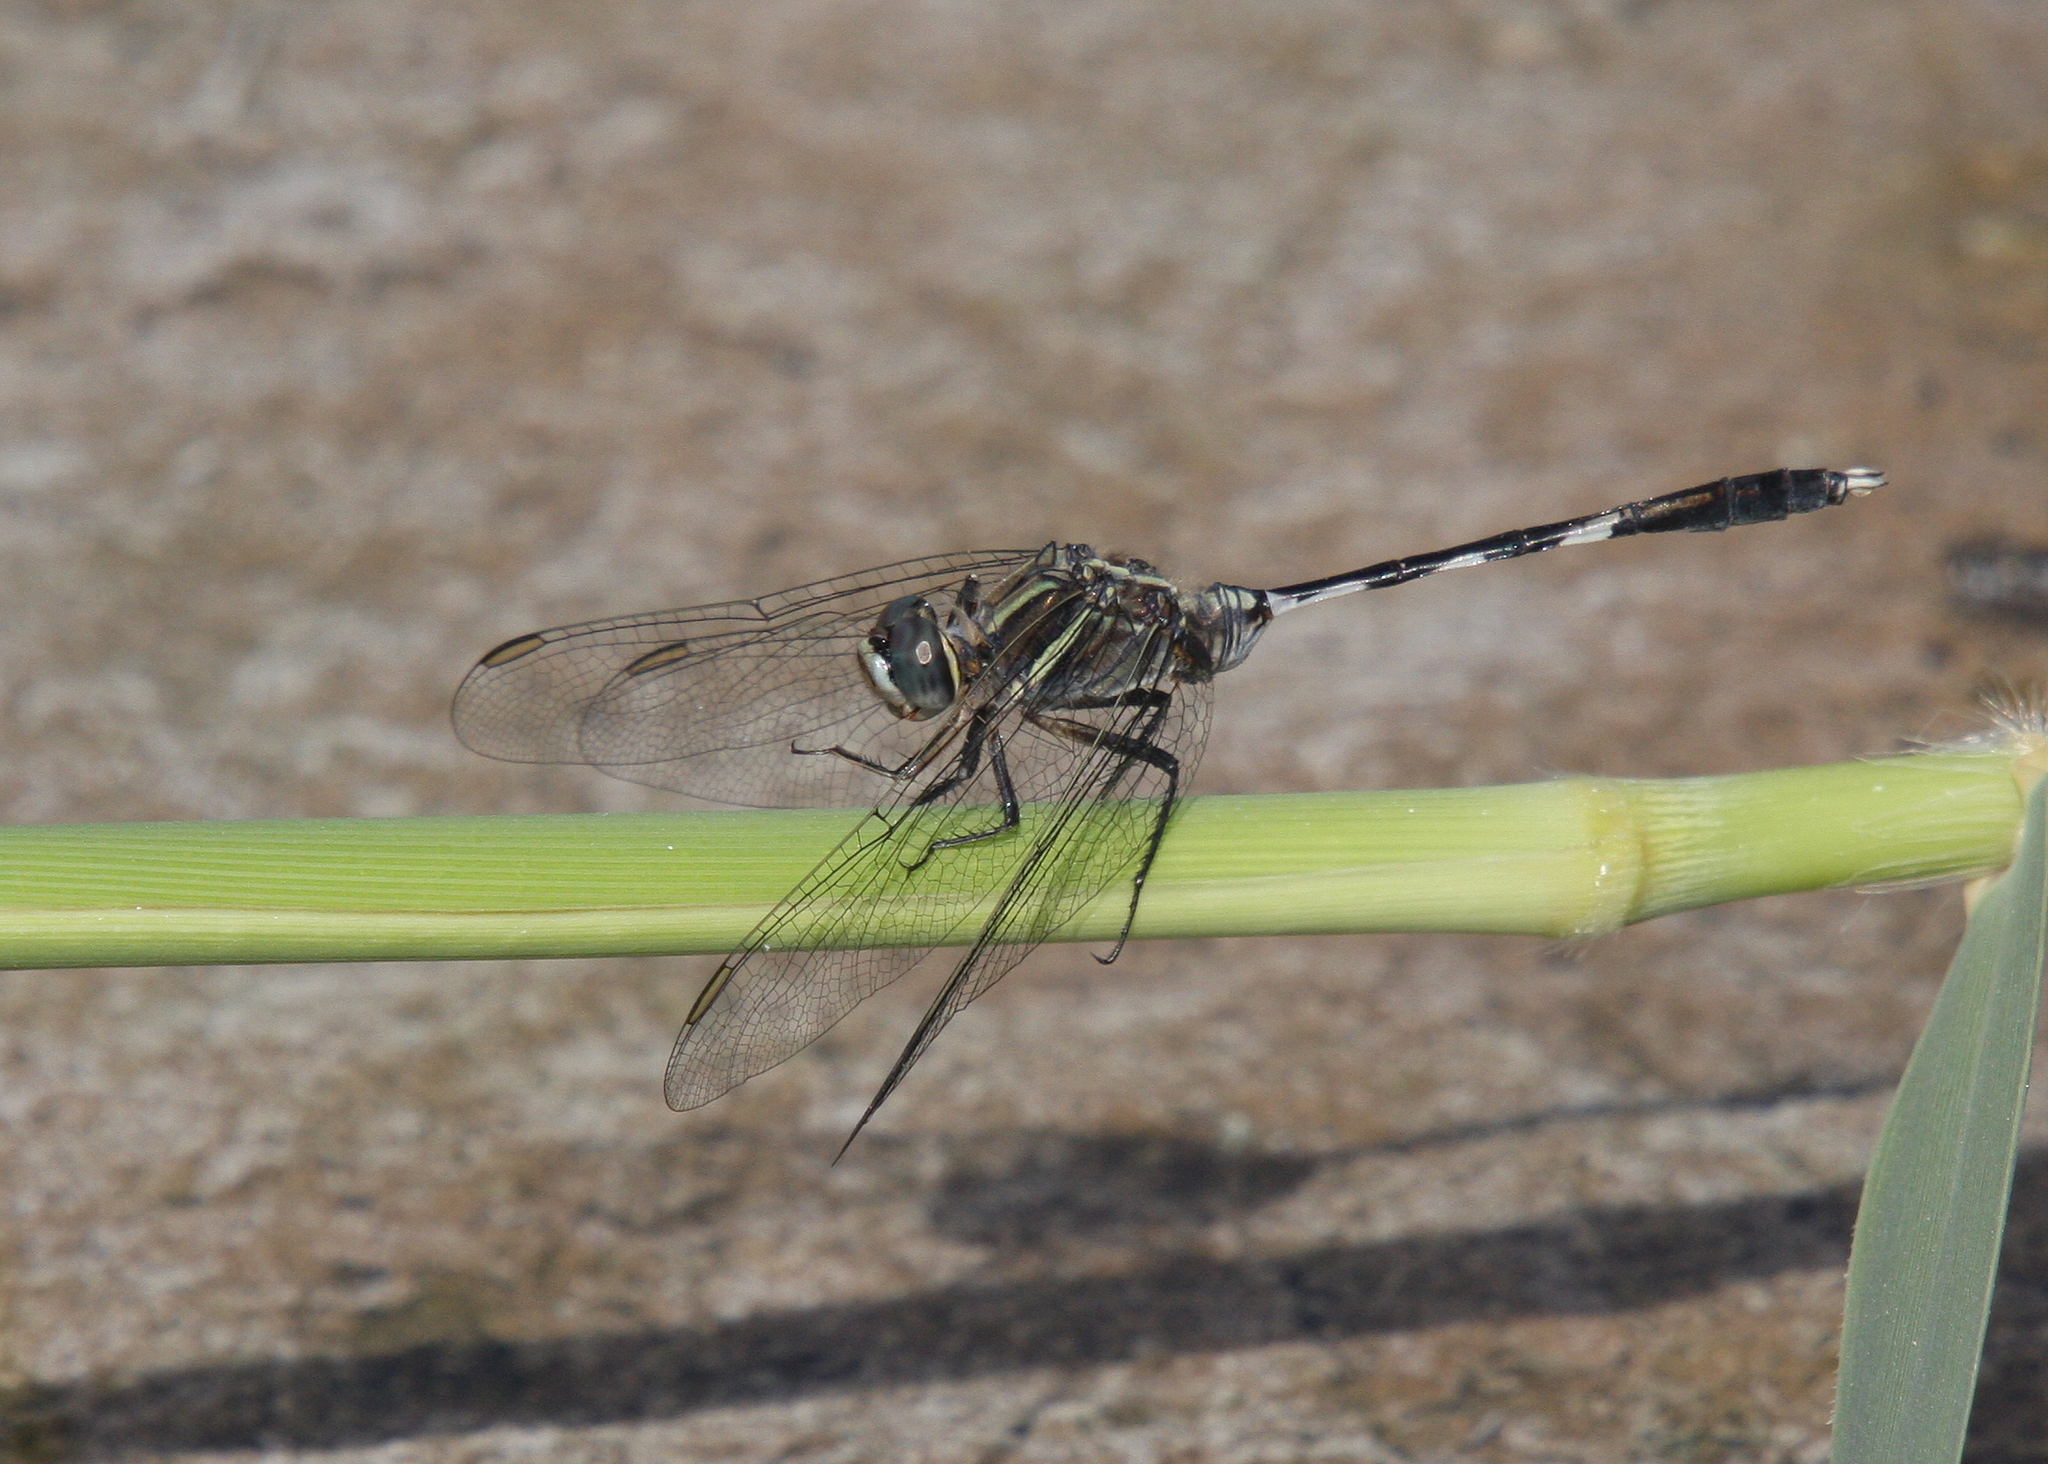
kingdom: Animalia
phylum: Arthropoda
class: Insecta
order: Odonata
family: Libellulidae
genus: Orthetrum
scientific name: Orthetrum sabina
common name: Slender skimmer
